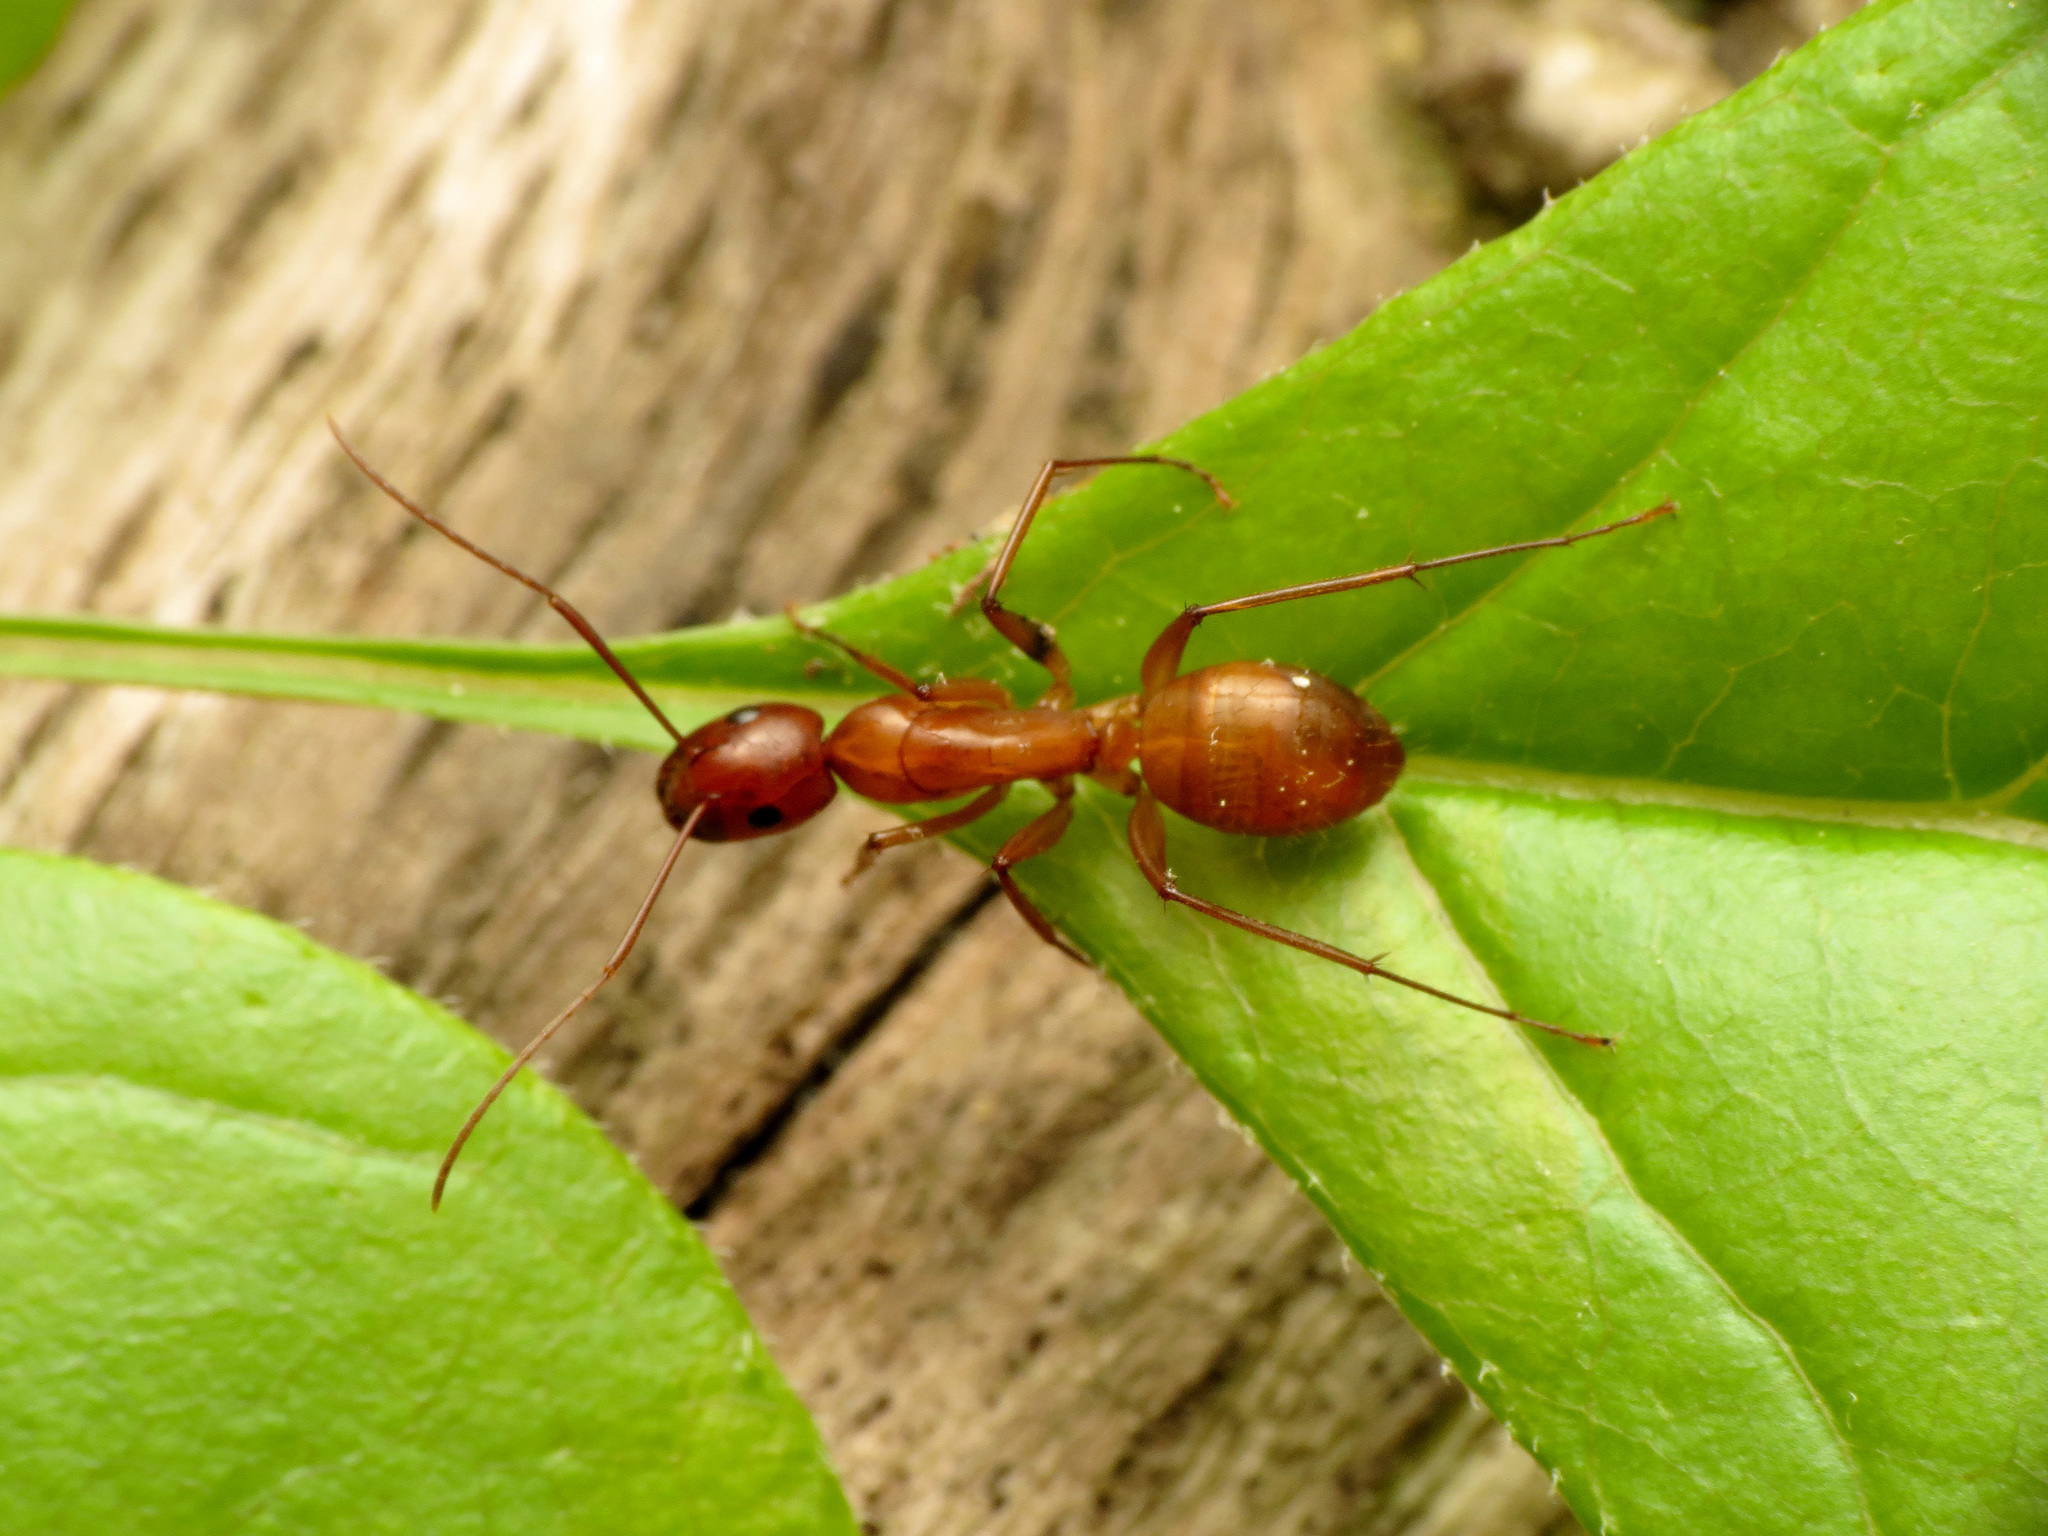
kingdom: Animalia
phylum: Arthropoda
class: Insecta
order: Hymenoptera
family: Formicidae
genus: Camponotus
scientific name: Camponotus castaneus
